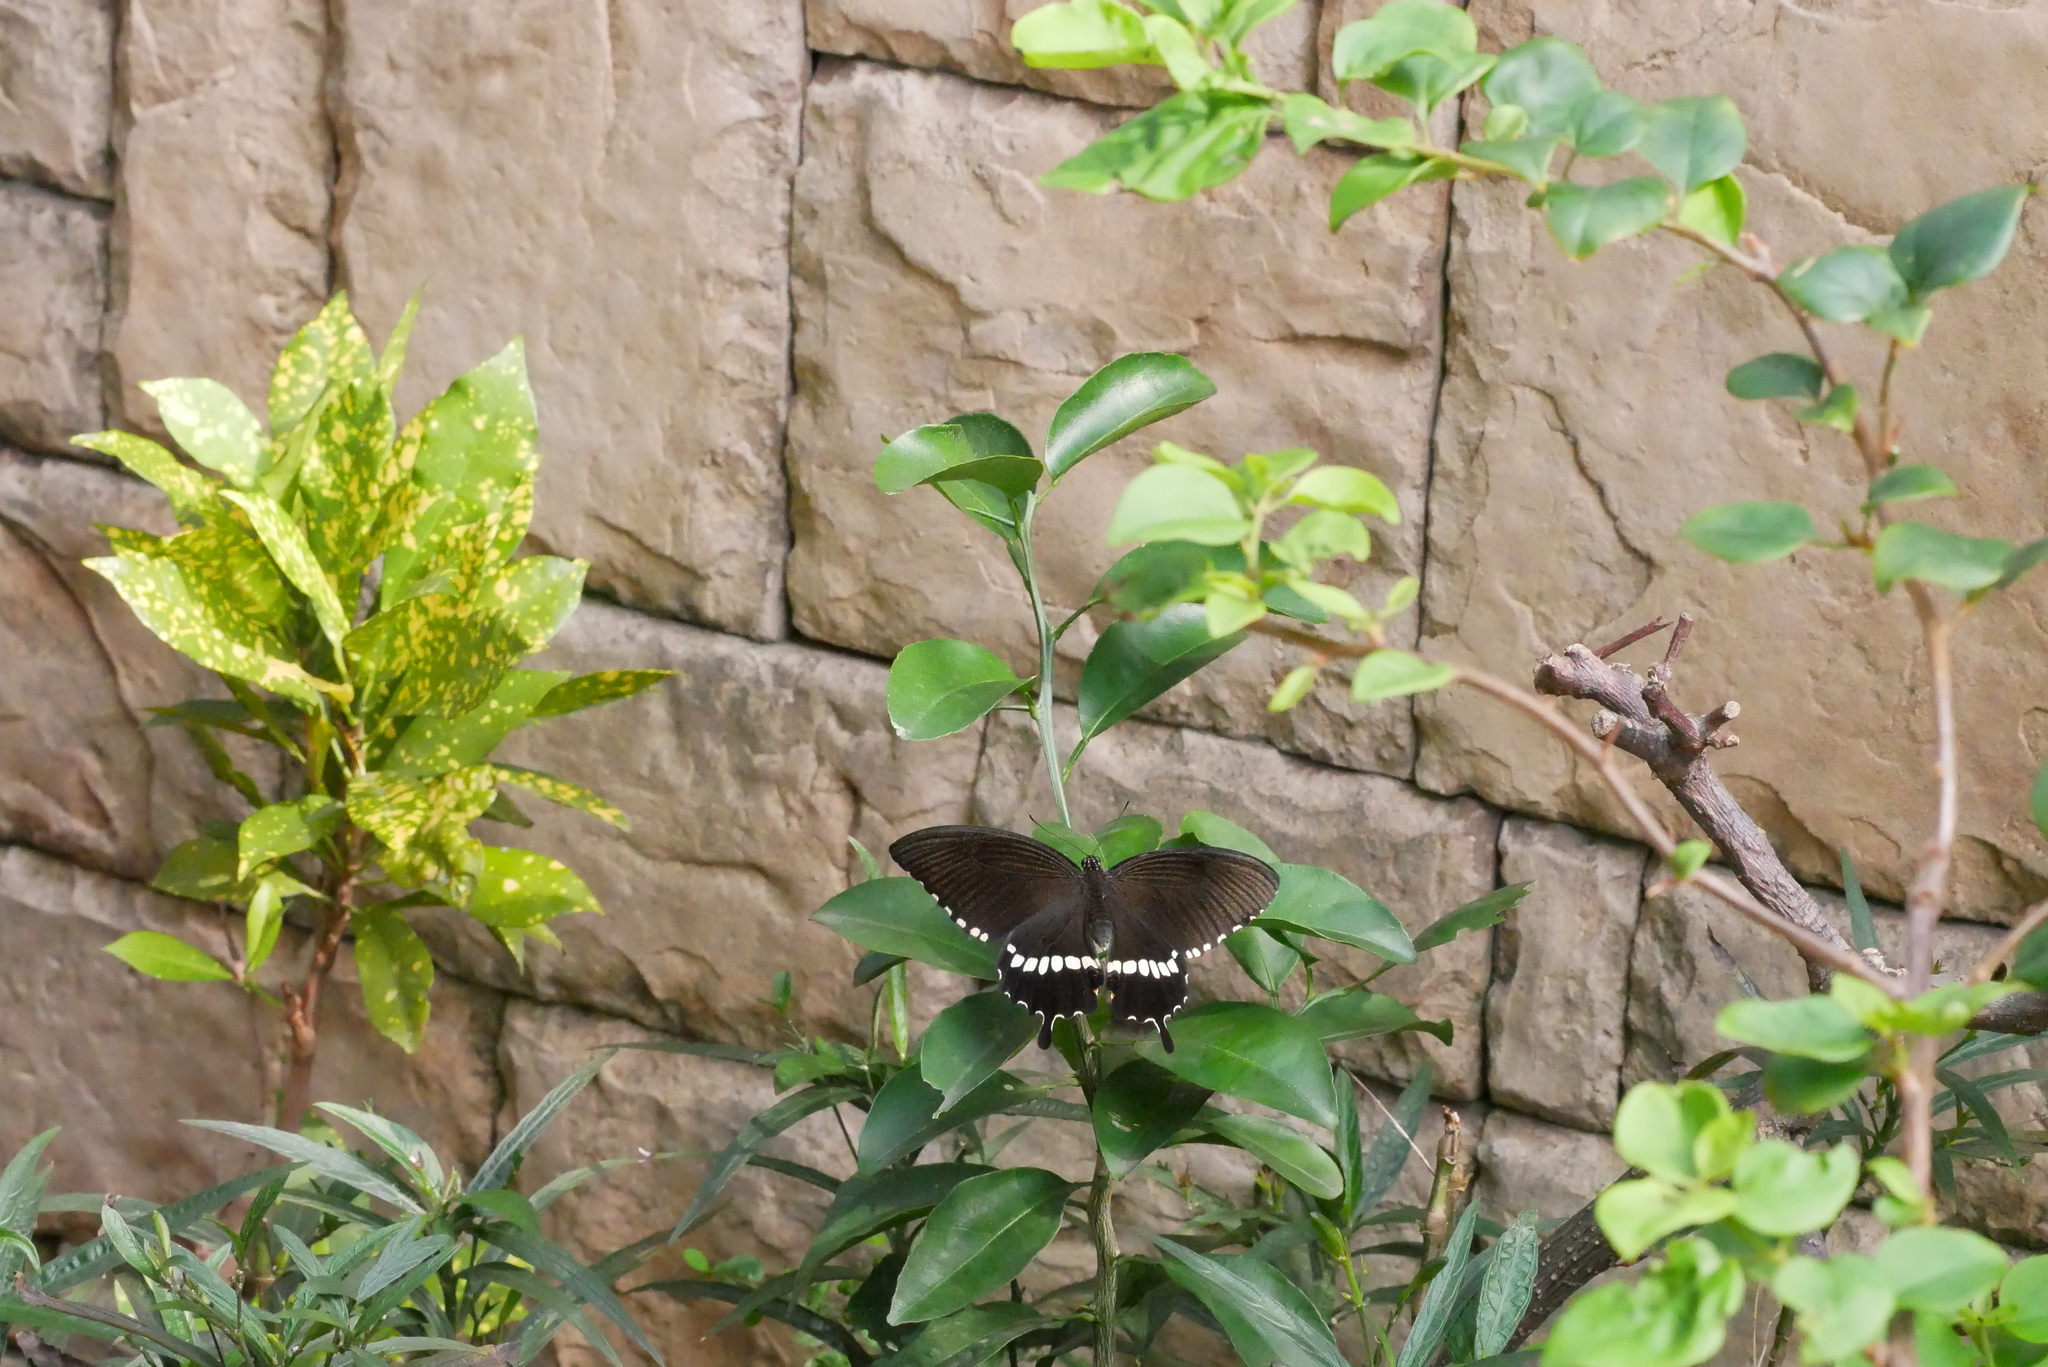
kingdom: Animalia
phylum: Arthropoda
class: Insecta
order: Lepidoptera
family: Papilionidae
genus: Papilio
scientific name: Papilio polytes
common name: Common mormon
